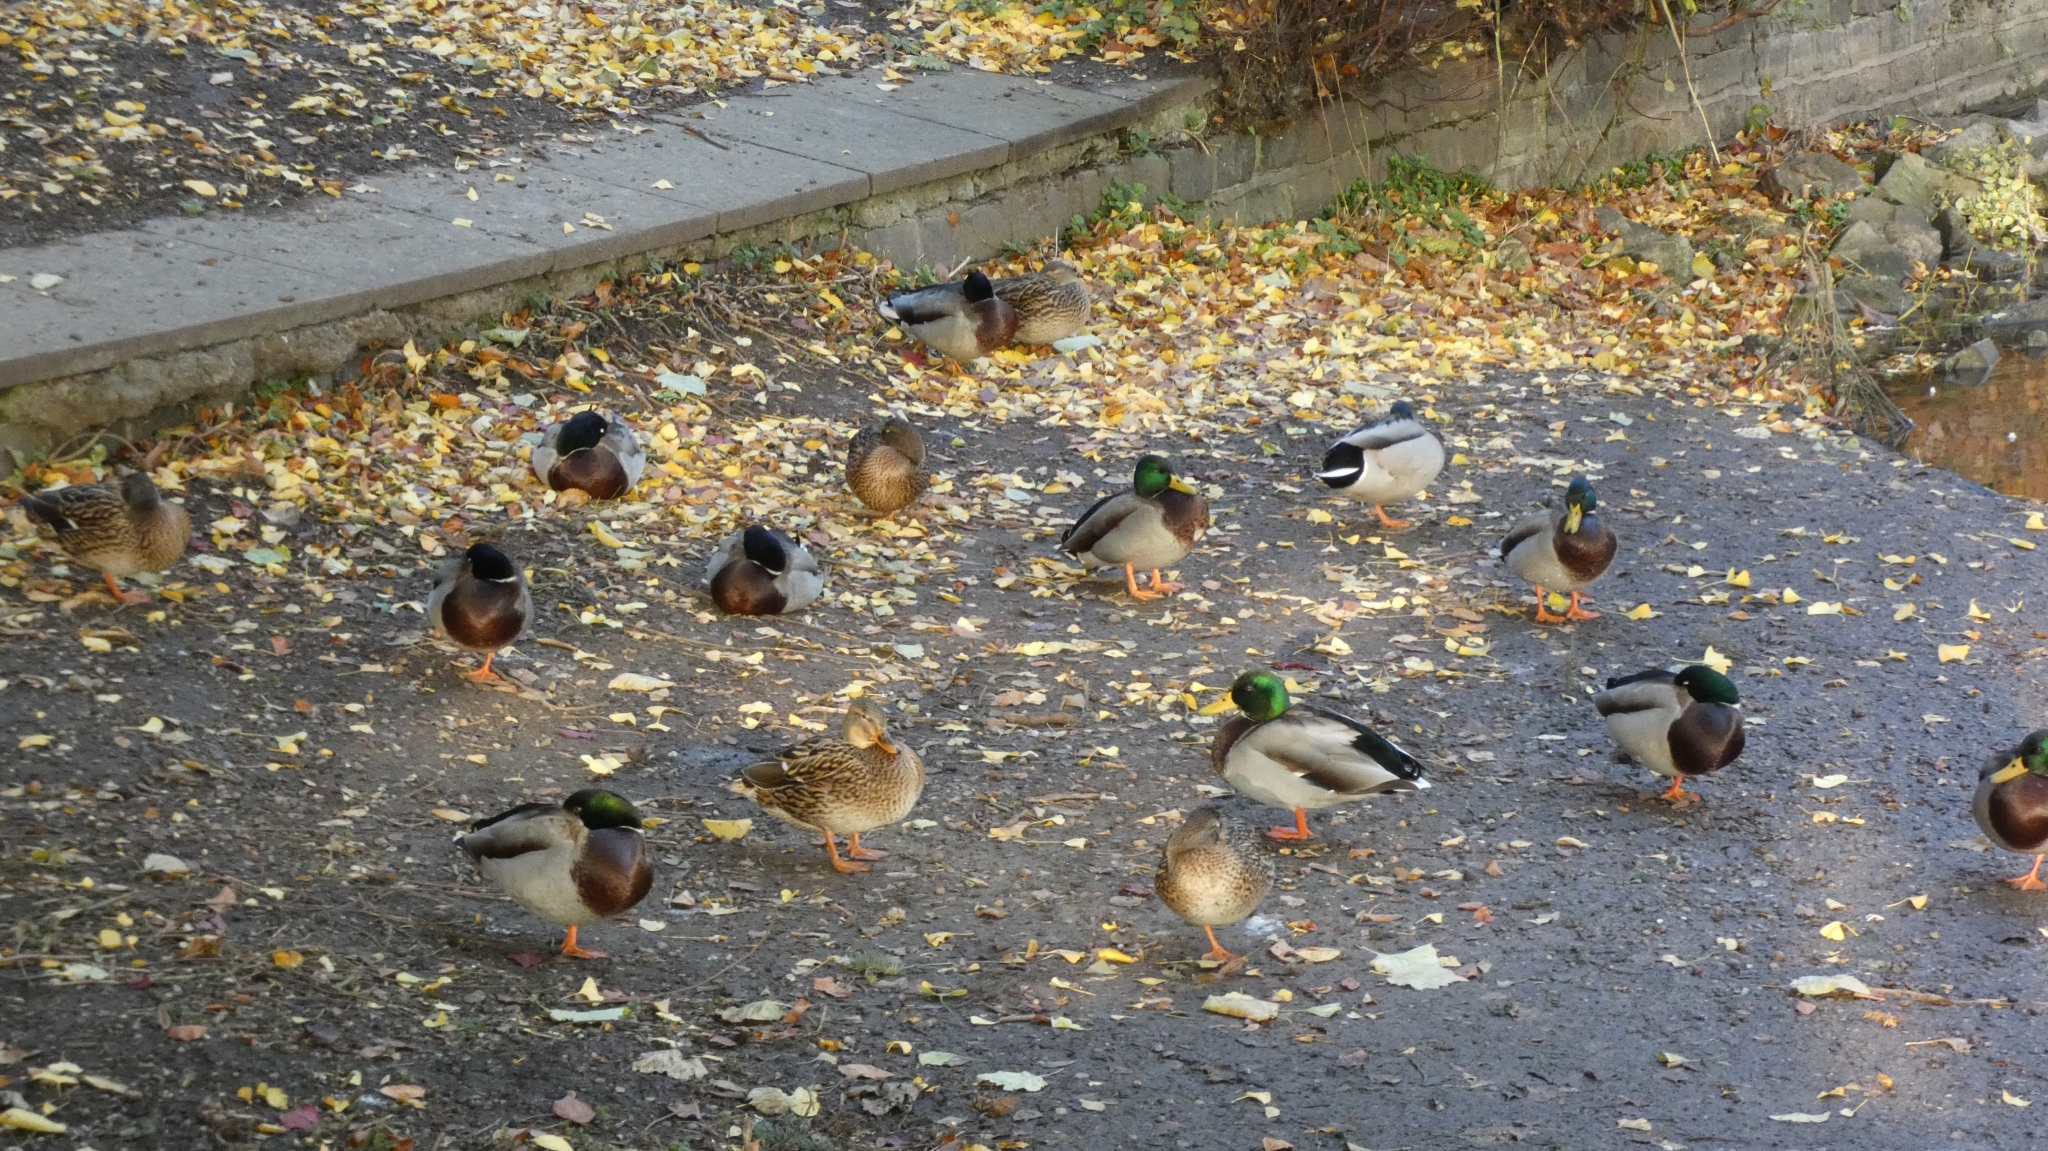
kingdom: Animalia
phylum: Chordata
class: Aves
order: Anseriformes
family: Anatidae
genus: Anas
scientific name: Anas platyrhynchos
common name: Mallard
